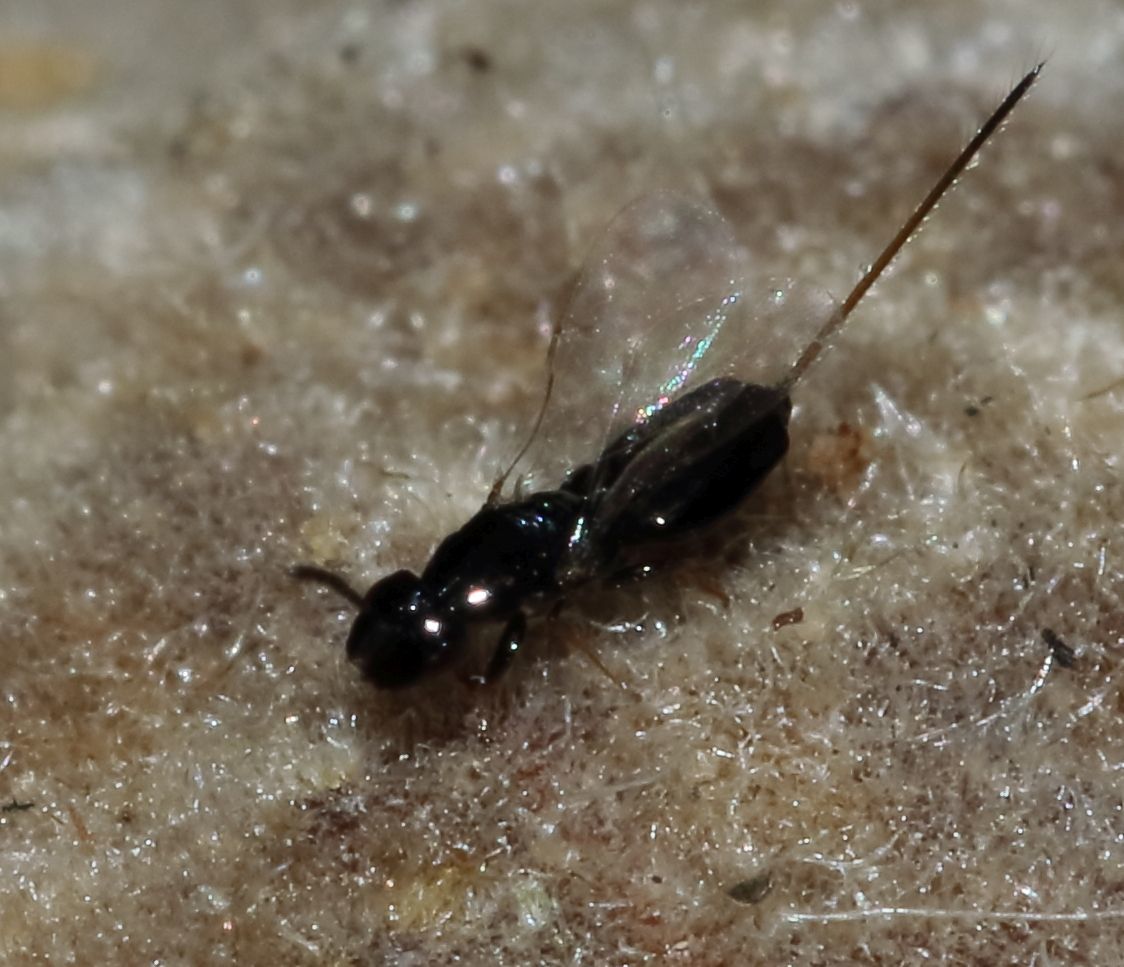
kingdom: Animalia
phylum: Arthropoda
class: Insecta
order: Hymenoptera
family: Agaonidae
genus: Sycophaga
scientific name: Sycophaga sycomori
